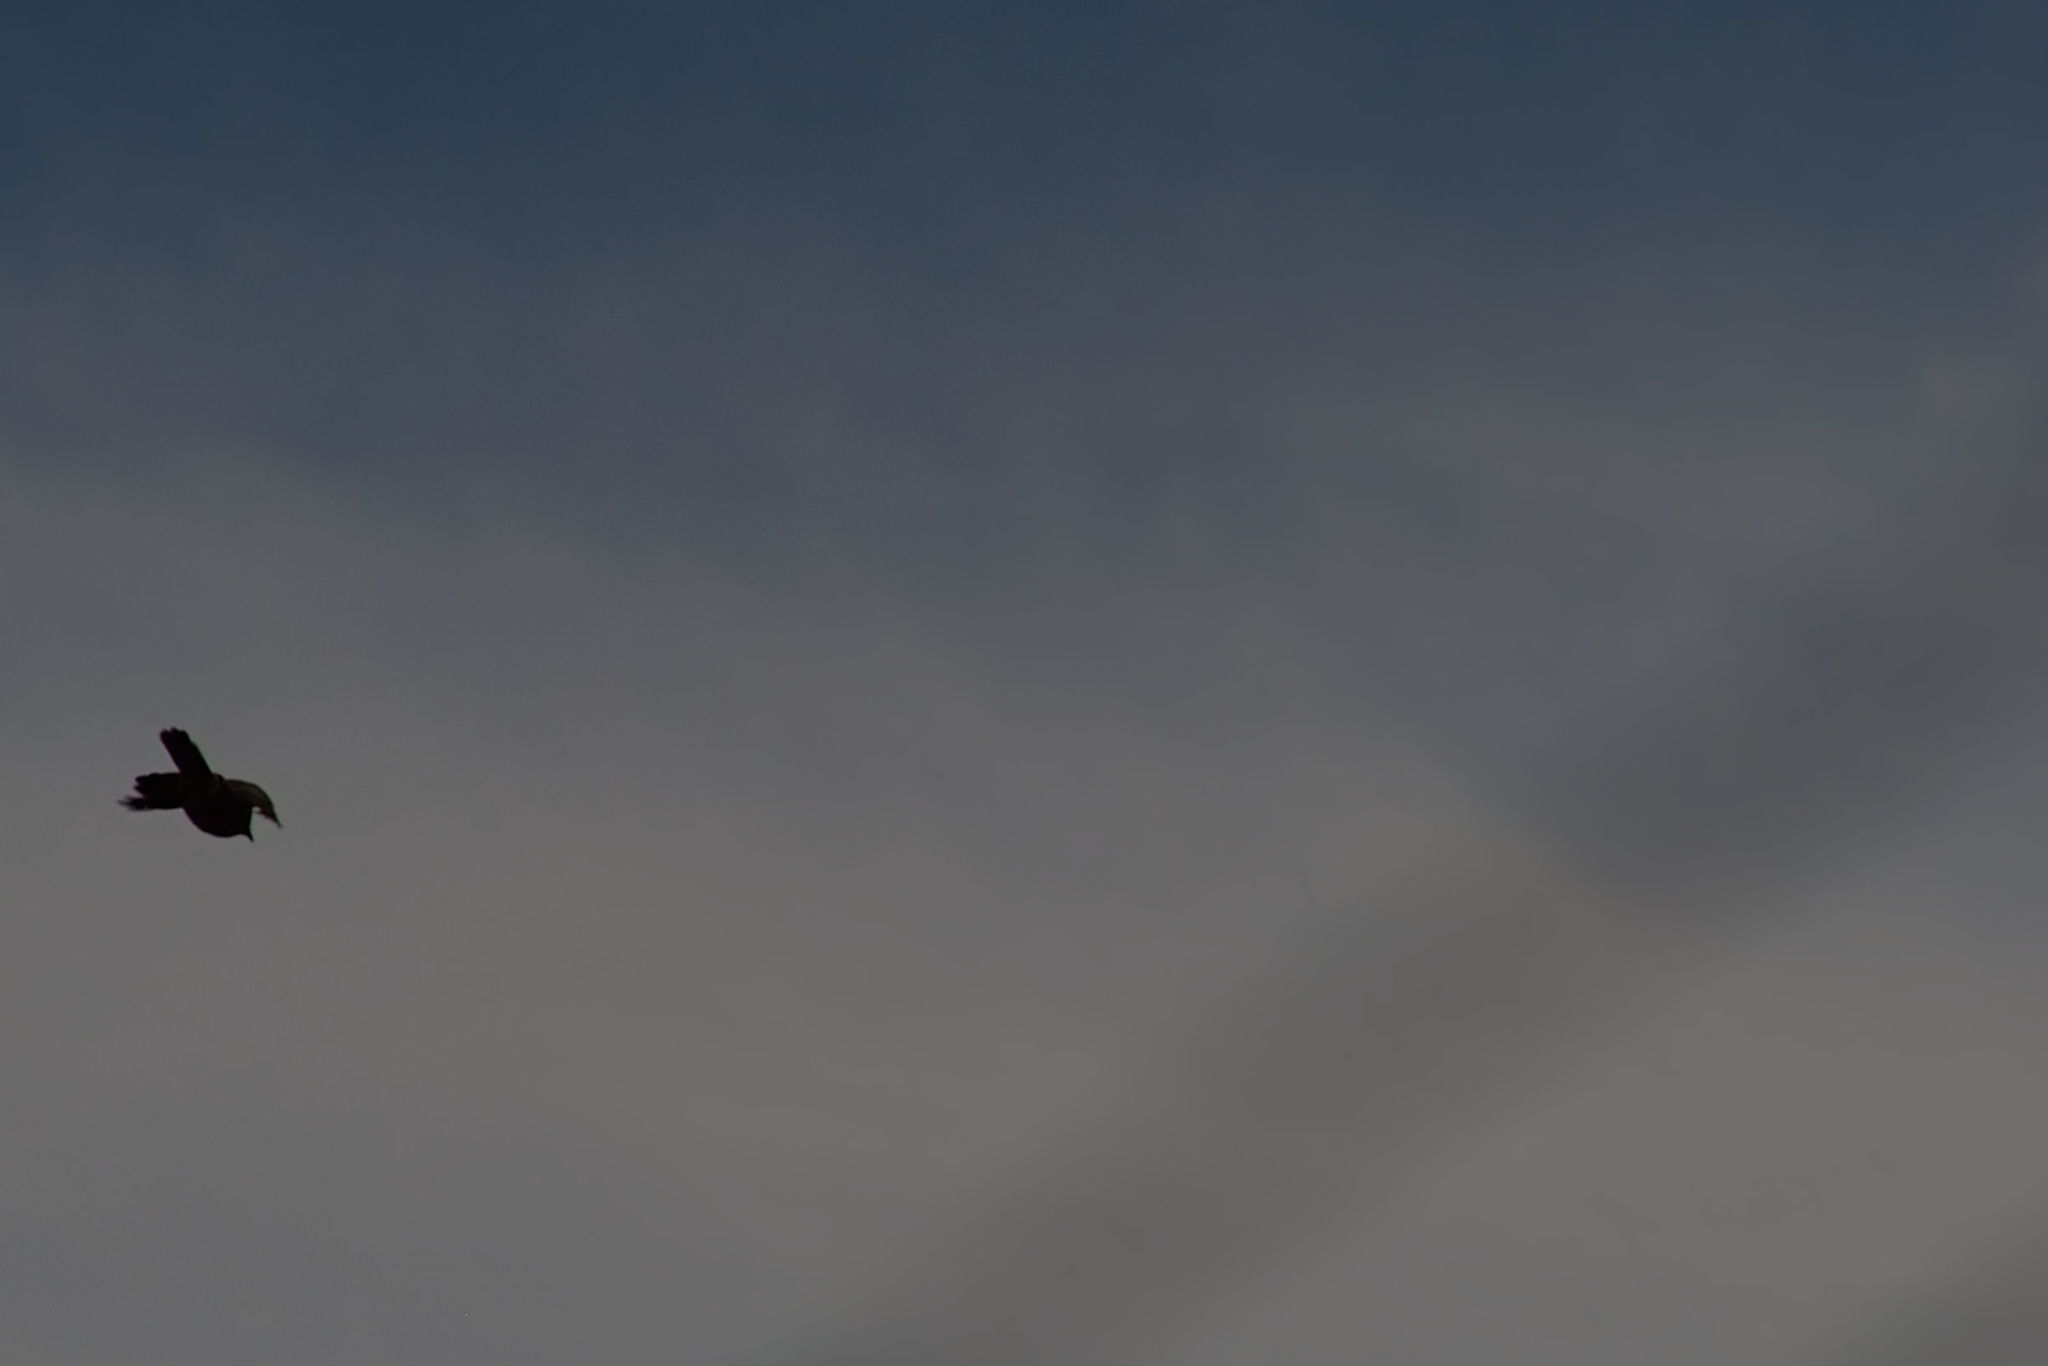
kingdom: Animalia
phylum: Chordata
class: Aves
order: Passeriformes
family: Meliphagidae
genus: Anthochaera
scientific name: Anthochaera carunculata
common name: Red wattlebird
